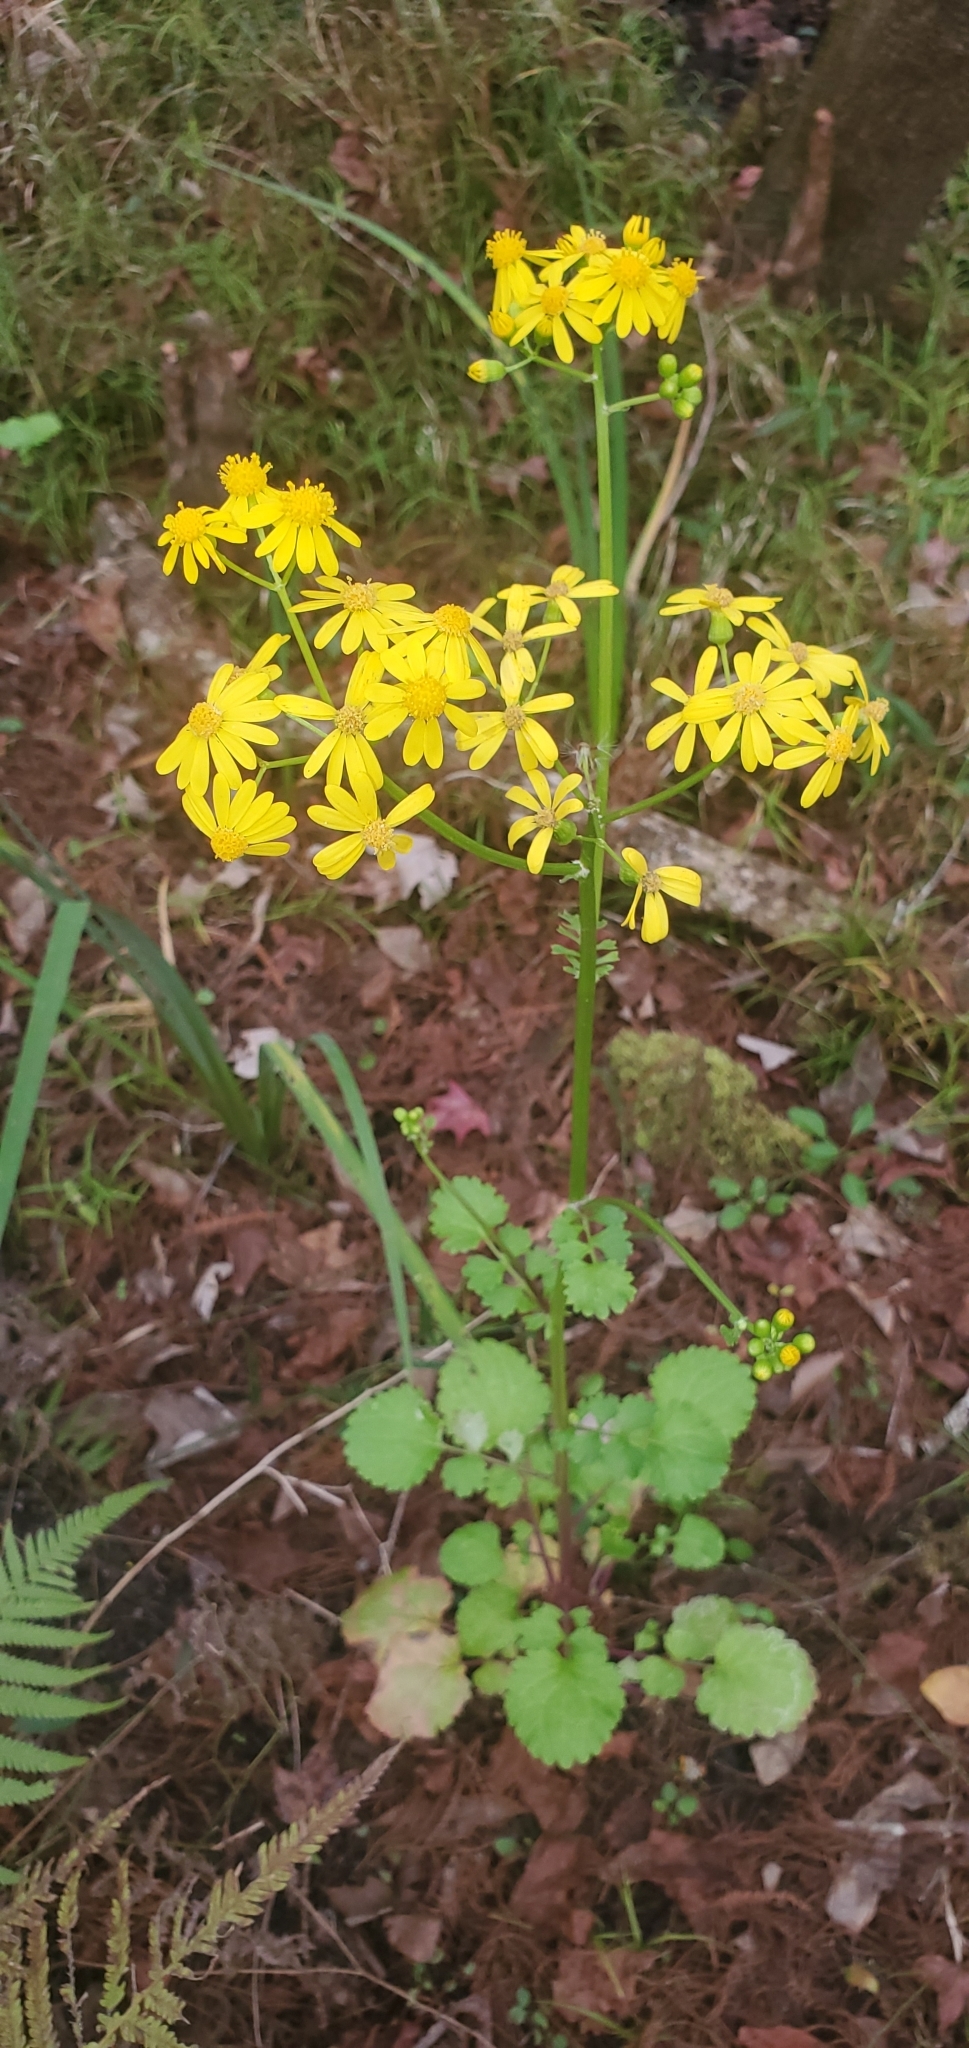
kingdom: Plantae
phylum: Tracheophyta
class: Magnoliopsida
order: Asterales
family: Asteraceae
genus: Packera
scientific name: Packera glabella
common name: Butterweed
